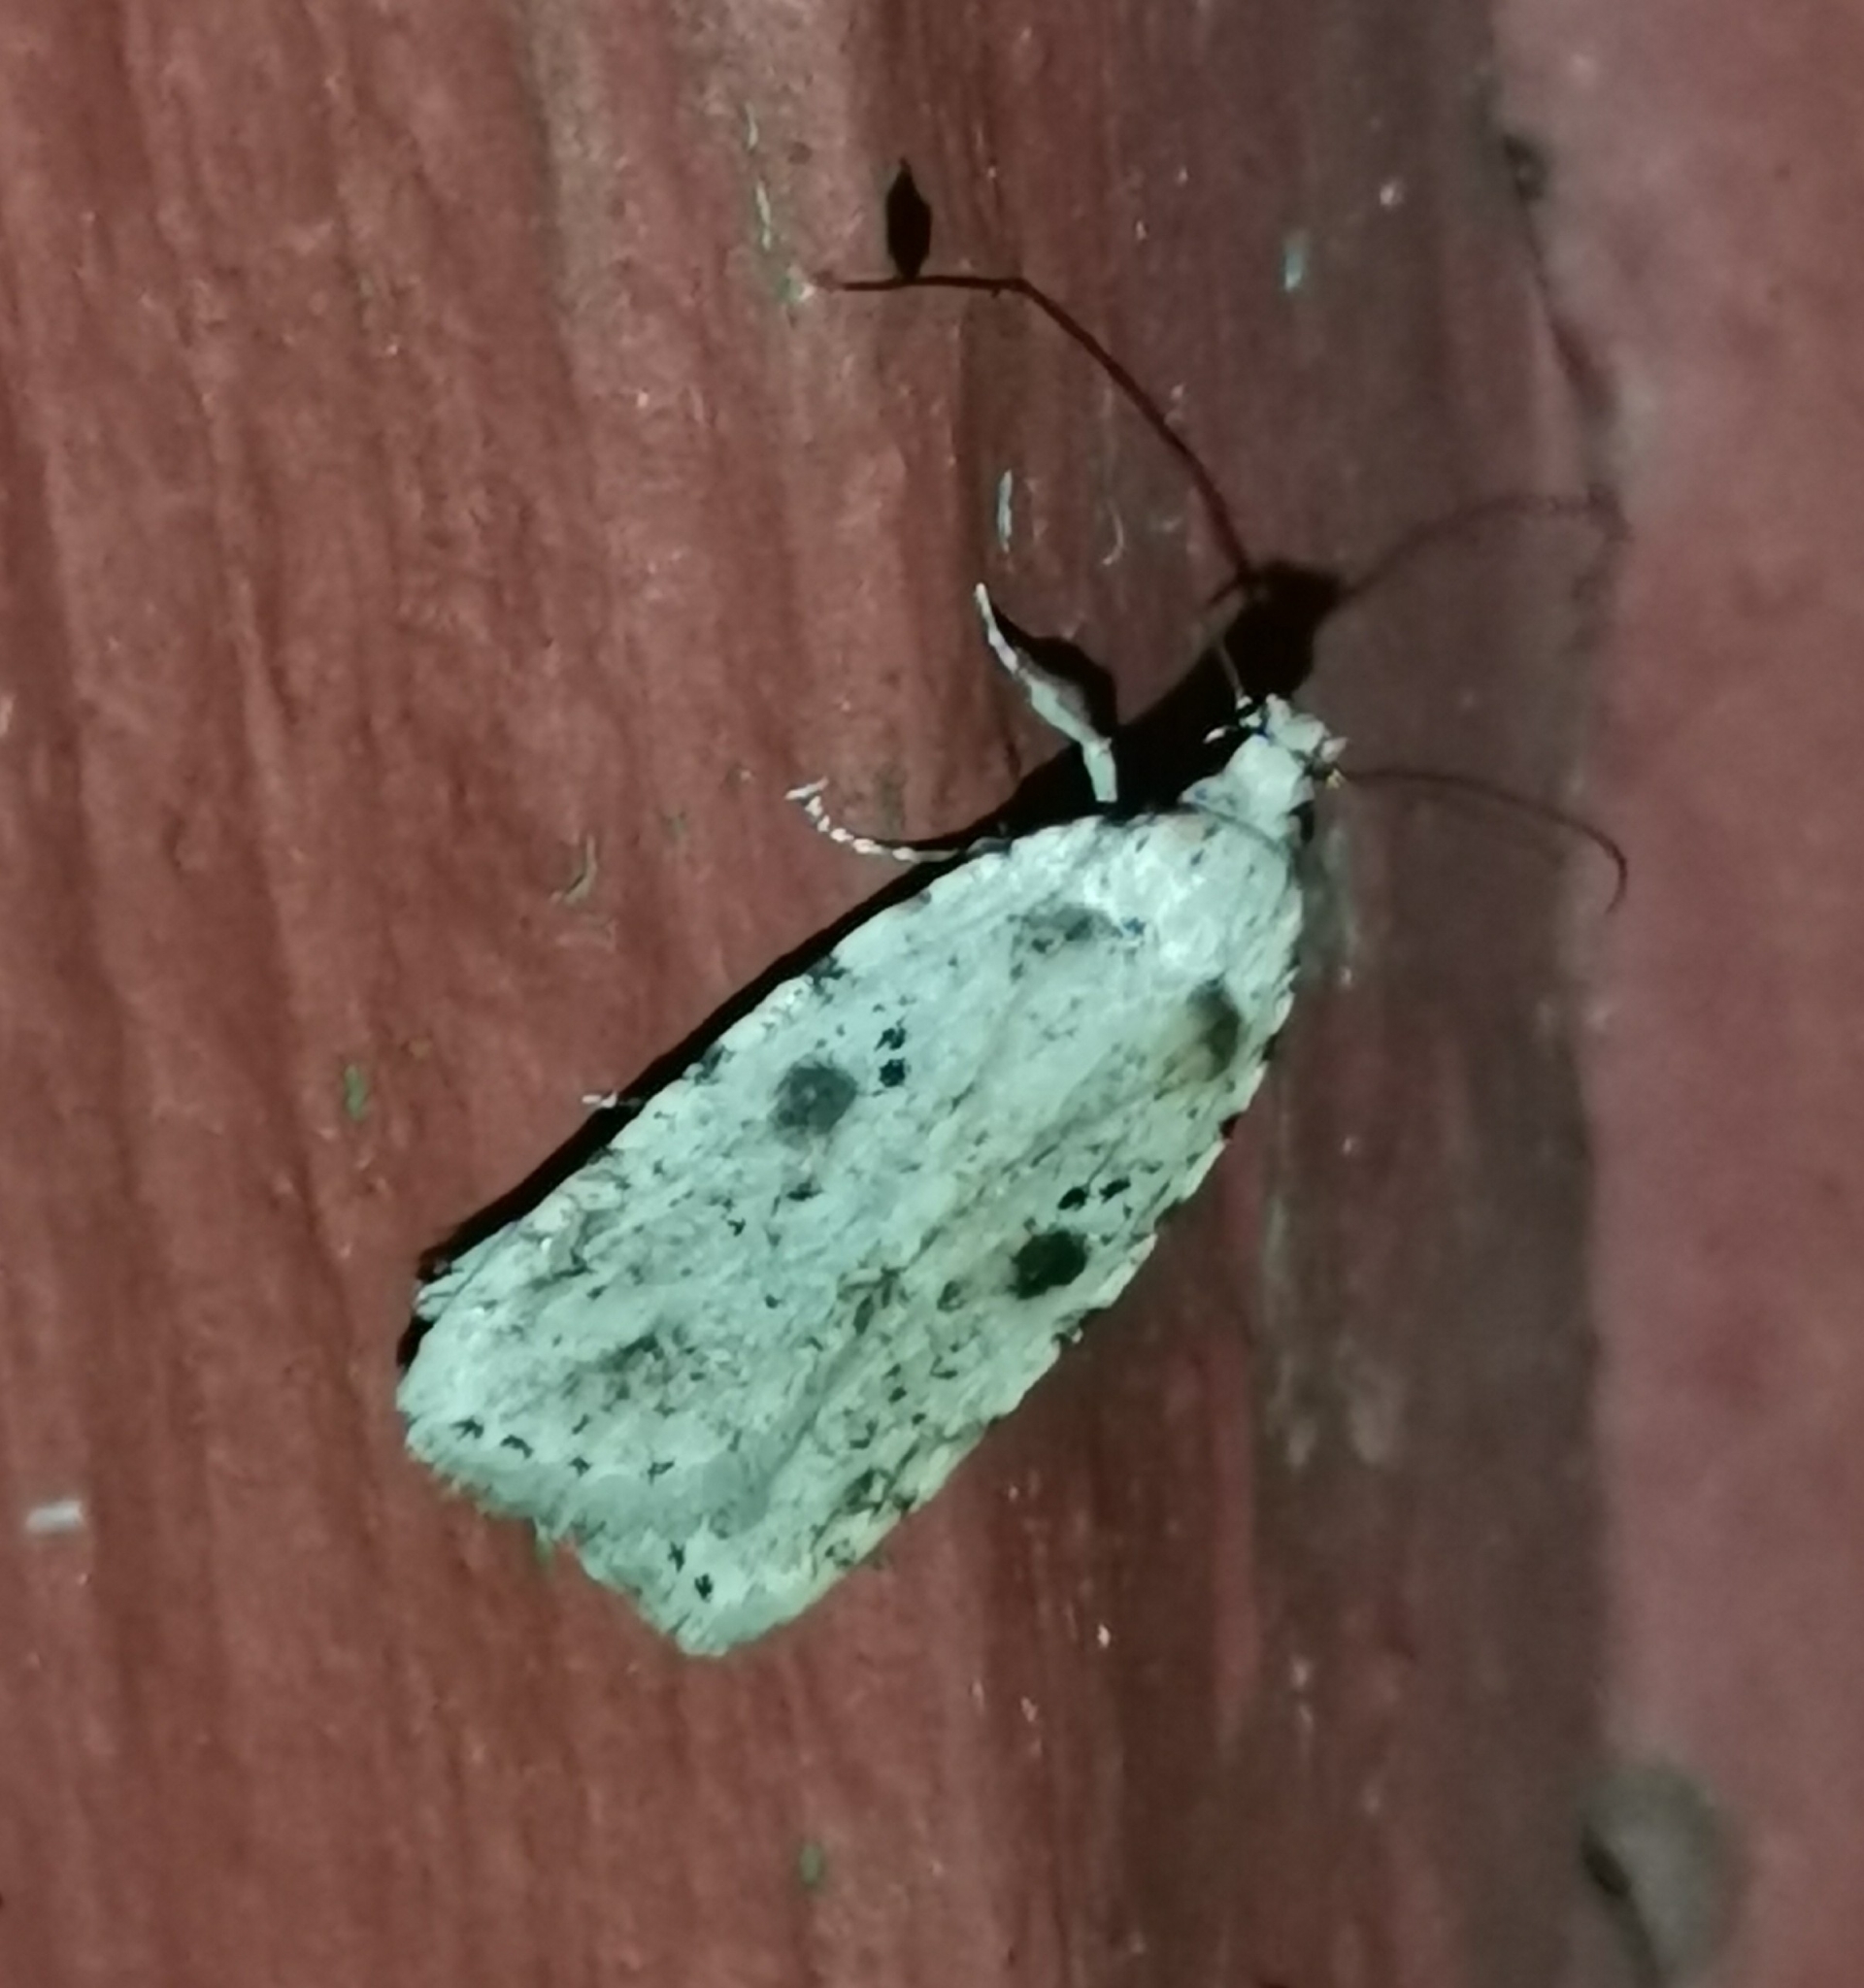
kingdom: Animalia
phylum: Arthropoda
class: Insecta
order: Lepidoptera
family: Depressariidae
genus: Agonopterix
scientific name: Agonopterix arenella
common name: Brindled flat-body
